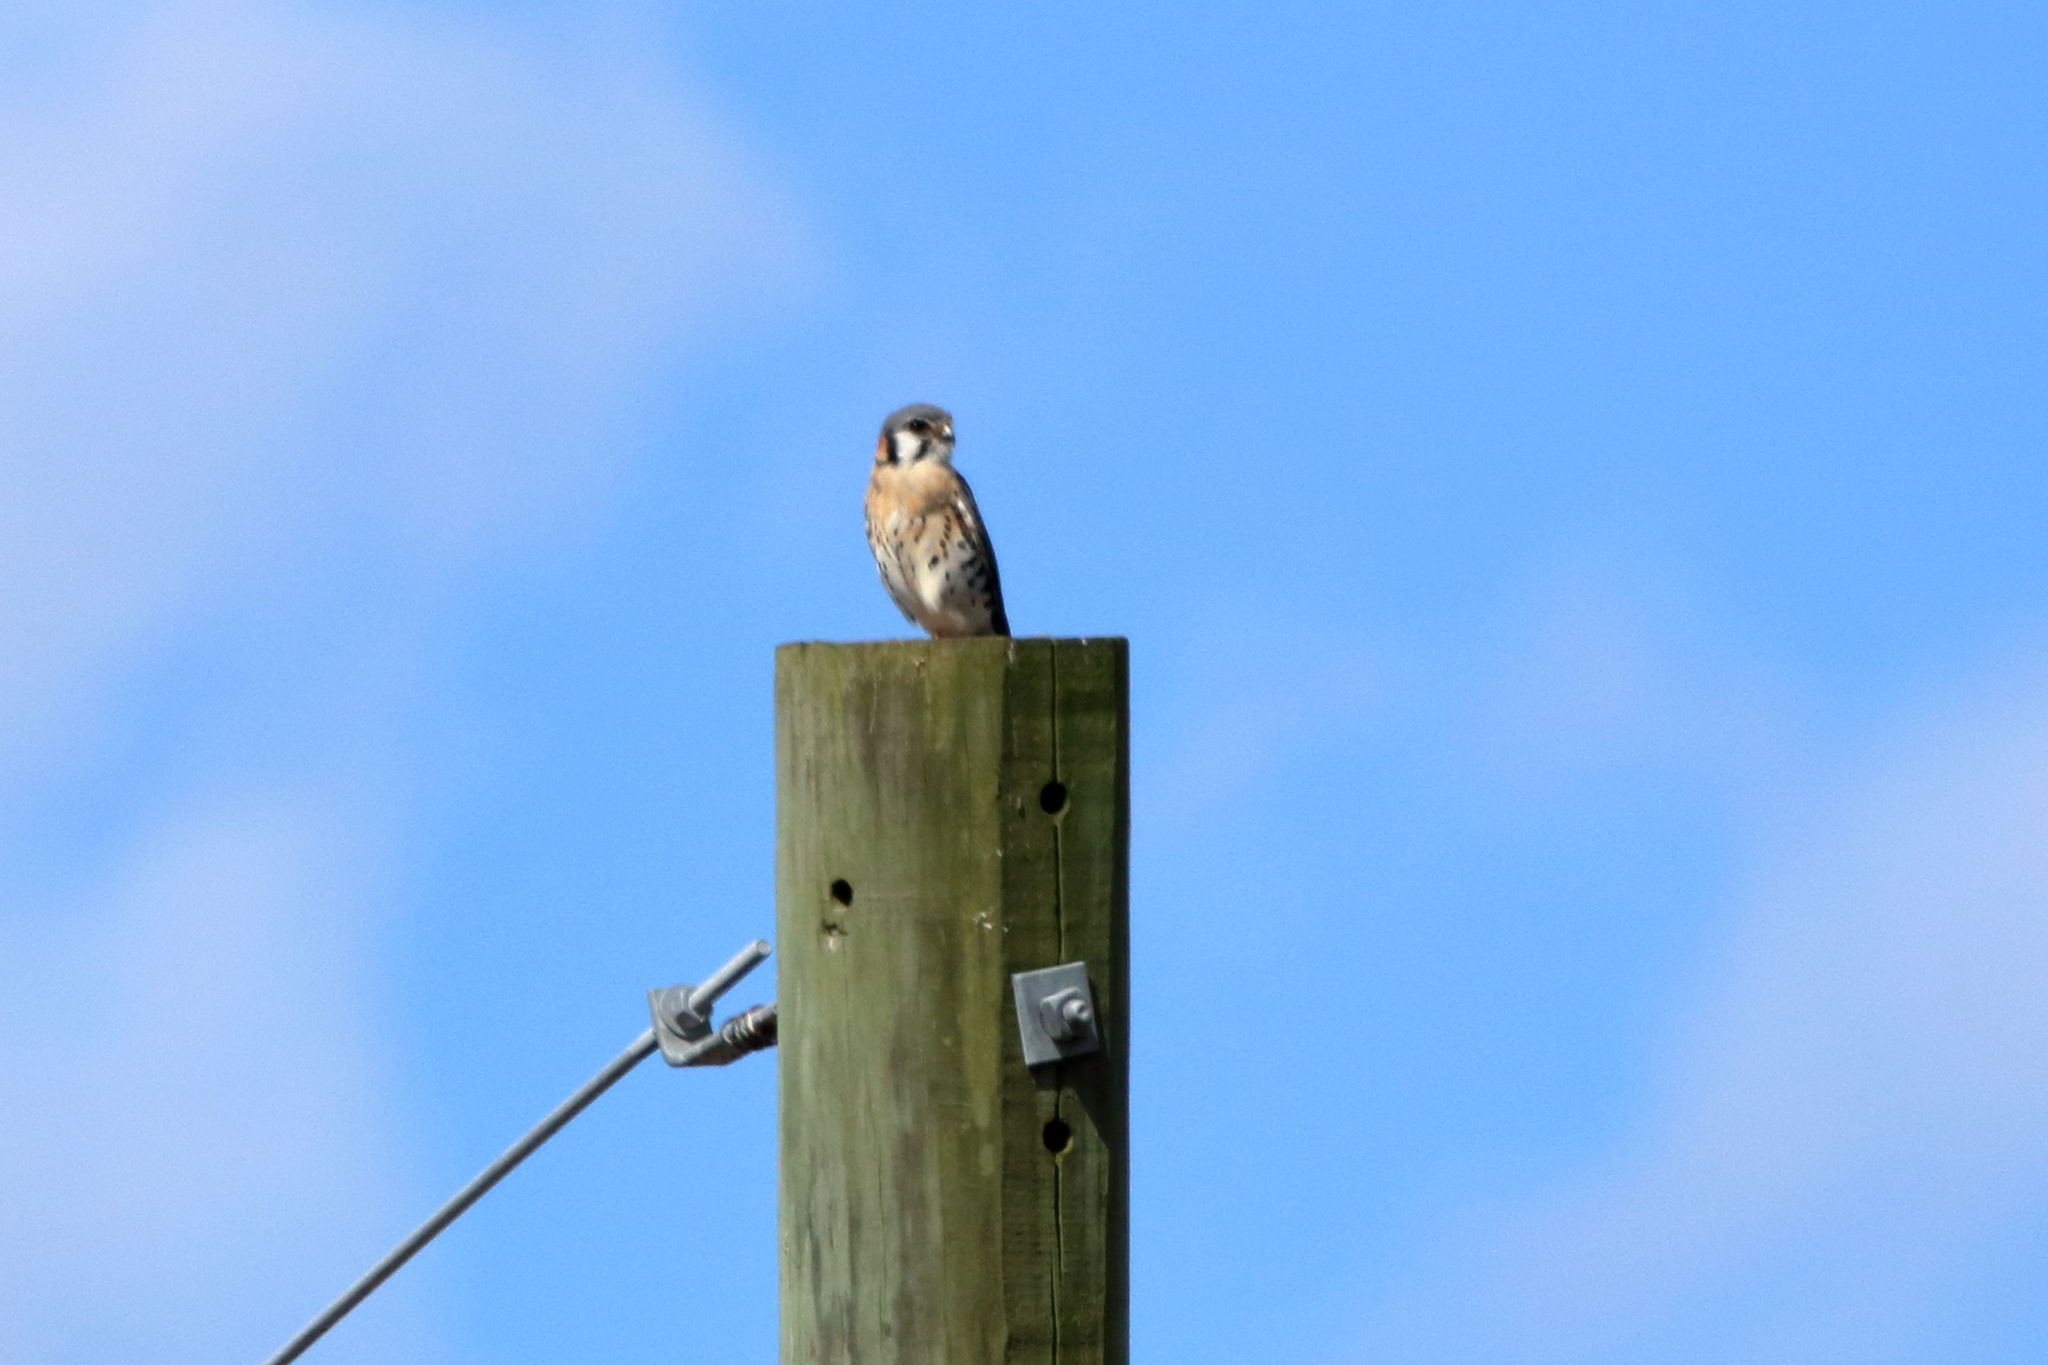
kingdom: Animalia
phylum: Chordata
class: Aves
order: Falconiformes
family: Falconidae
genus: Falco
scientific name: Falco sparverius
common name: American kestrel
